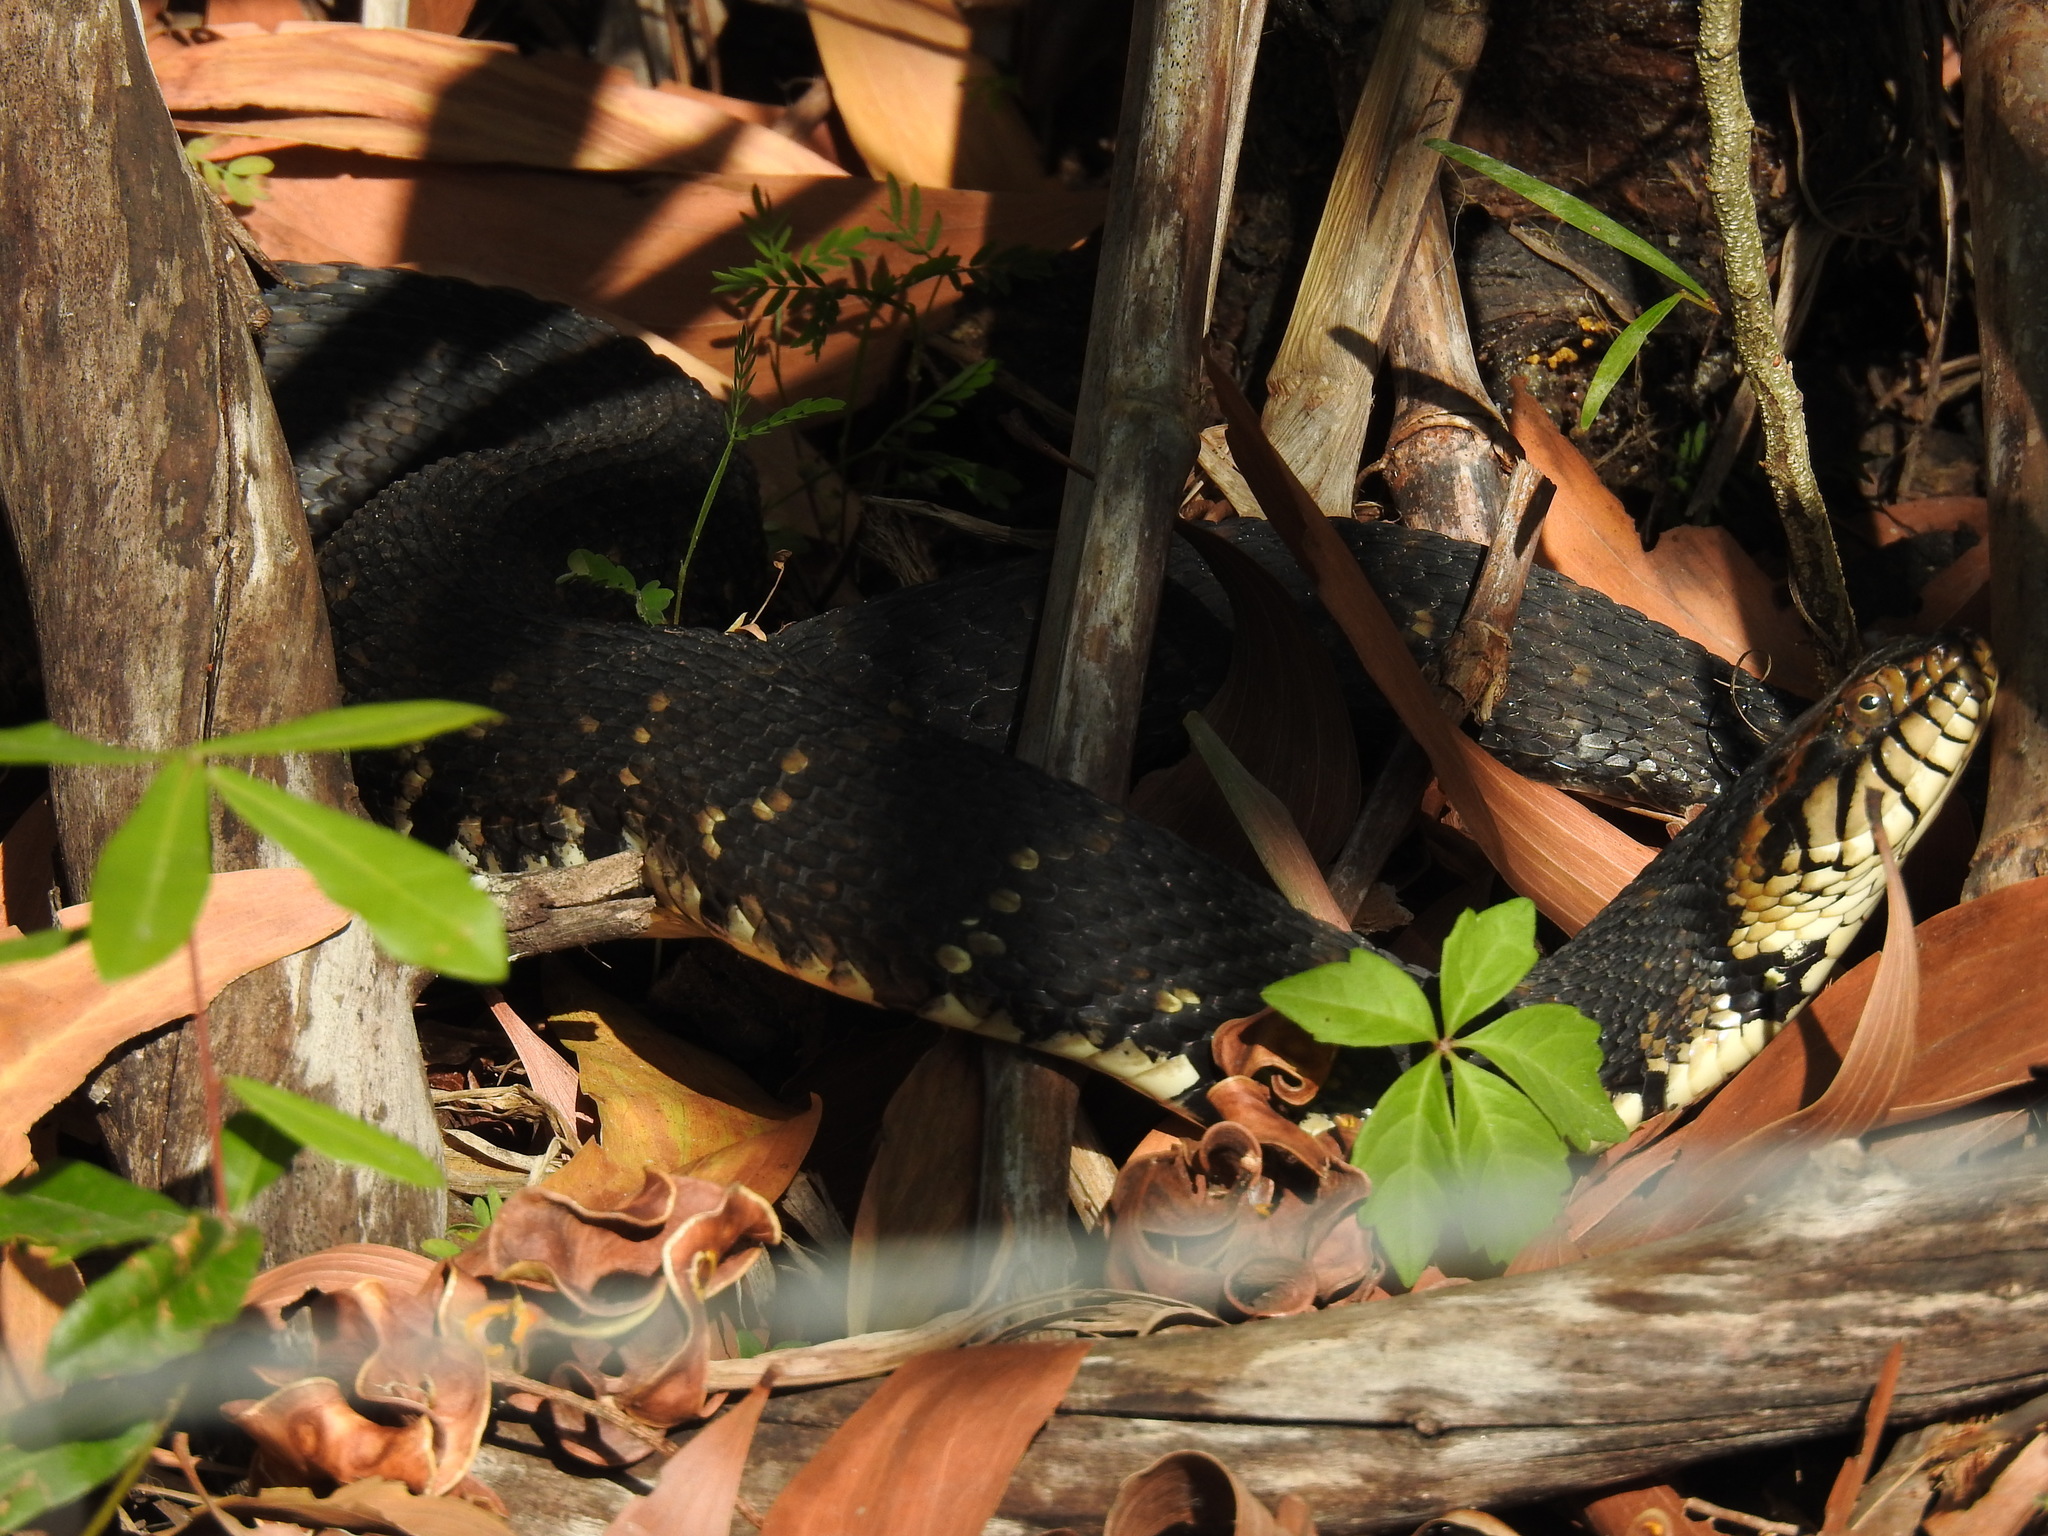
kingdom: Animalia
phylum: Chordata
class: Squamata
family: Colubridae
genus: Nerodia
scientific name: Nerodia fasciata
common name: Southern water snake
